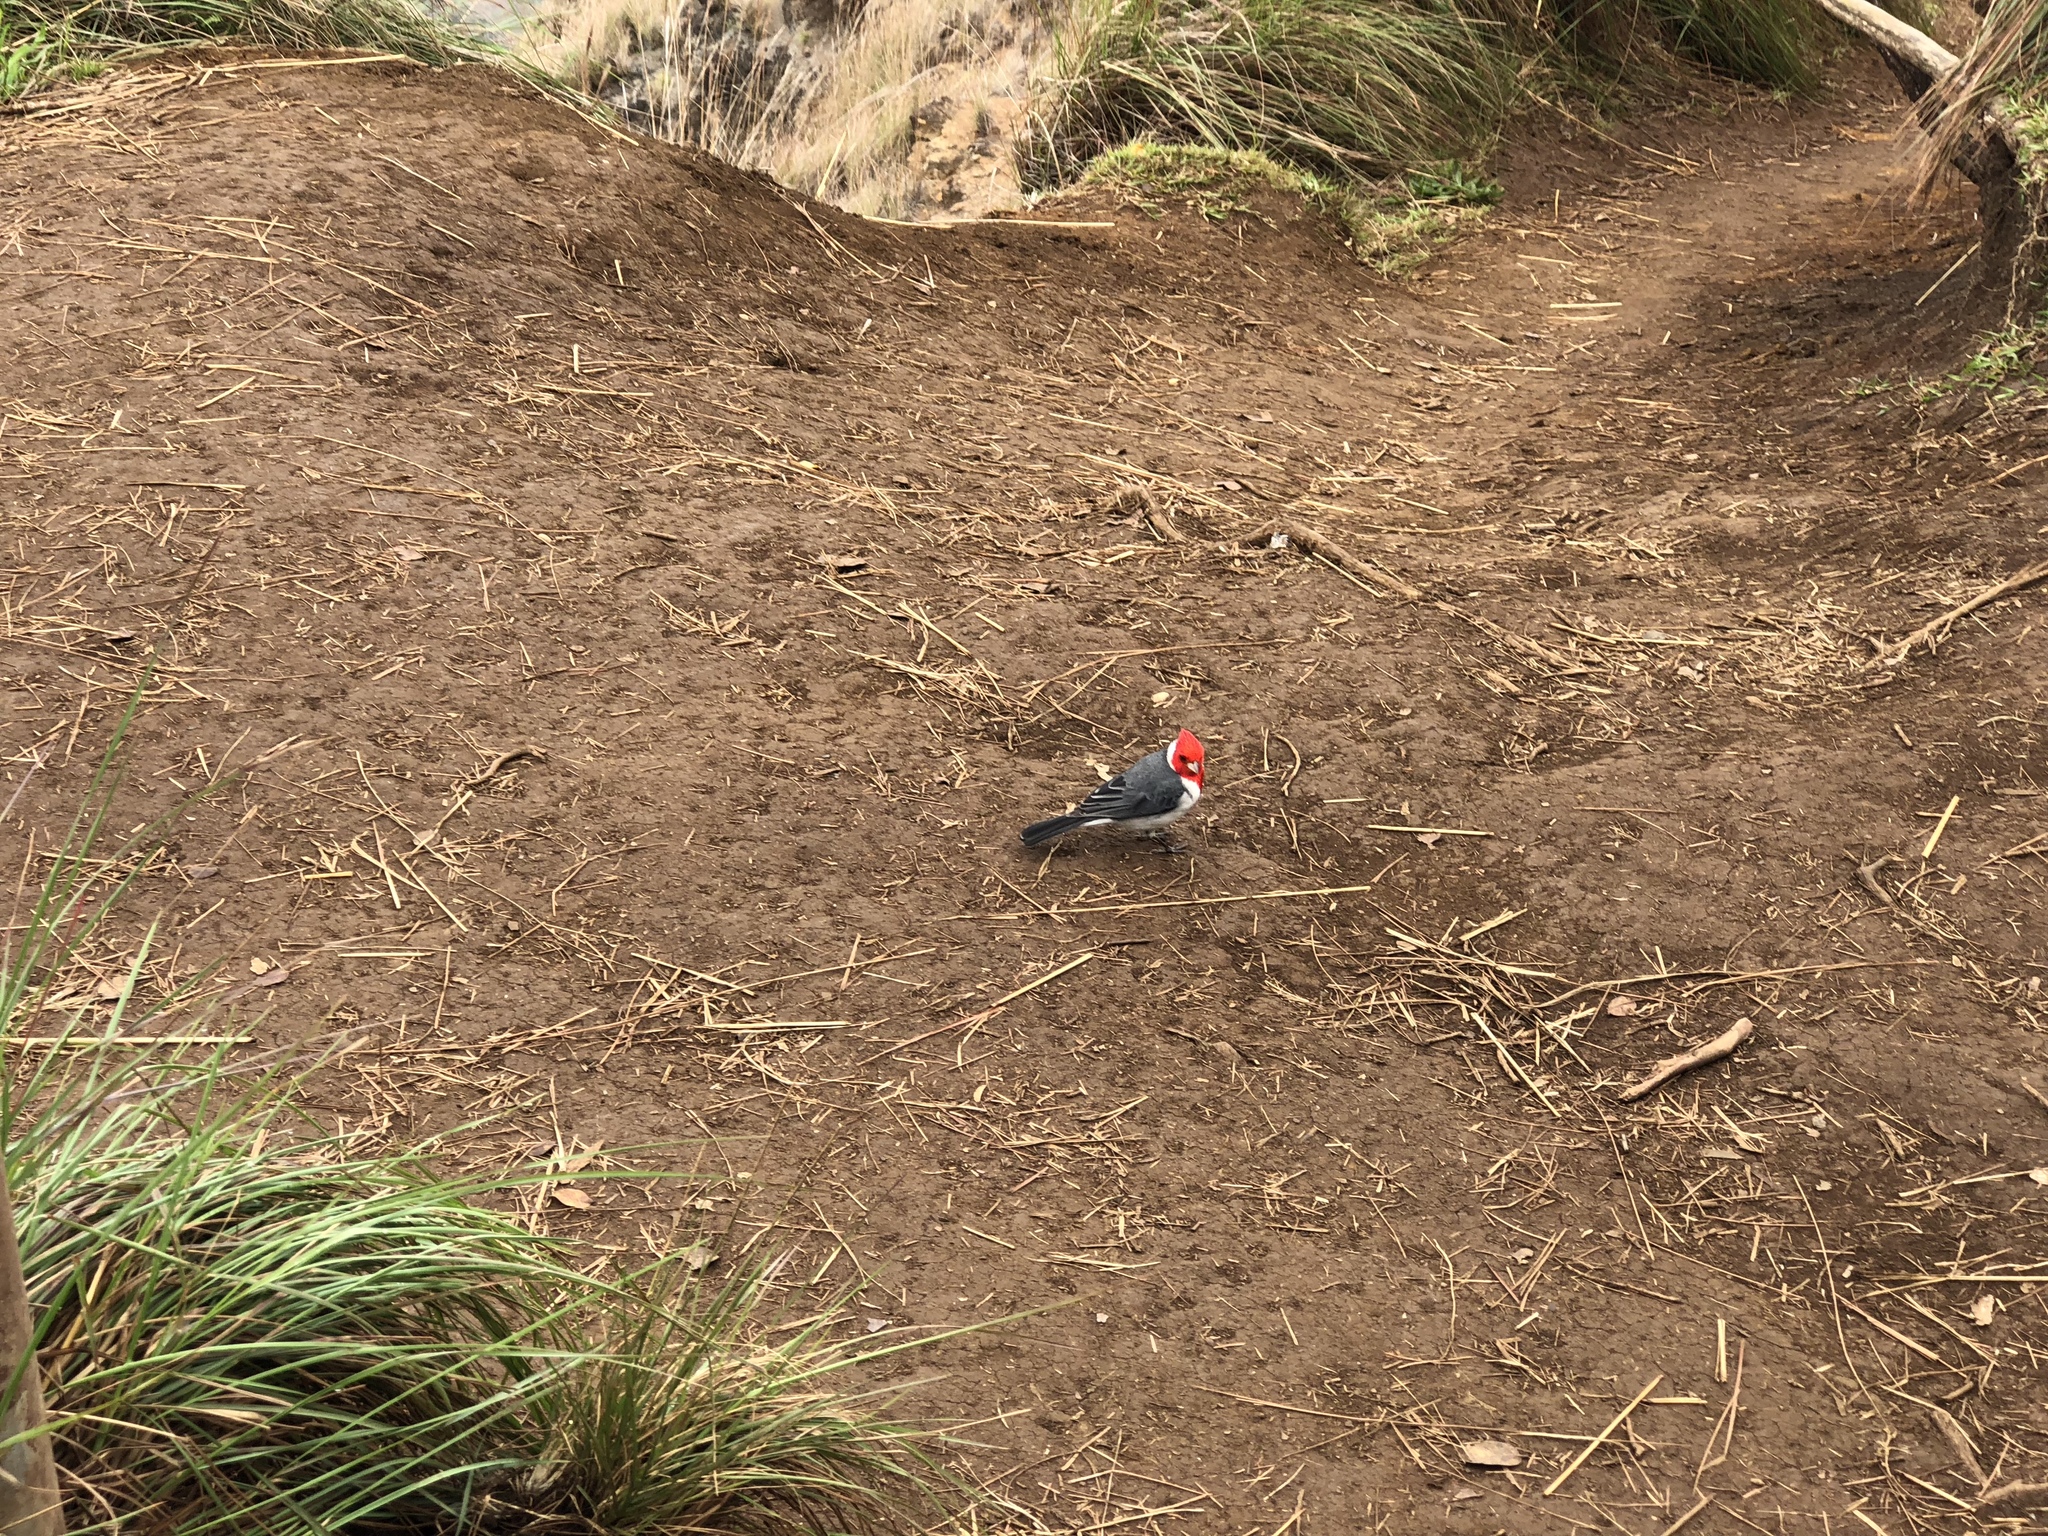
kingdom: Animalia
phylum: Chordata
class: Aves
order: Passeriformes
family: Thraupidae
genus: Paroaria
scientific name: Paroaria coronata
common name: Red-crested cardinal
